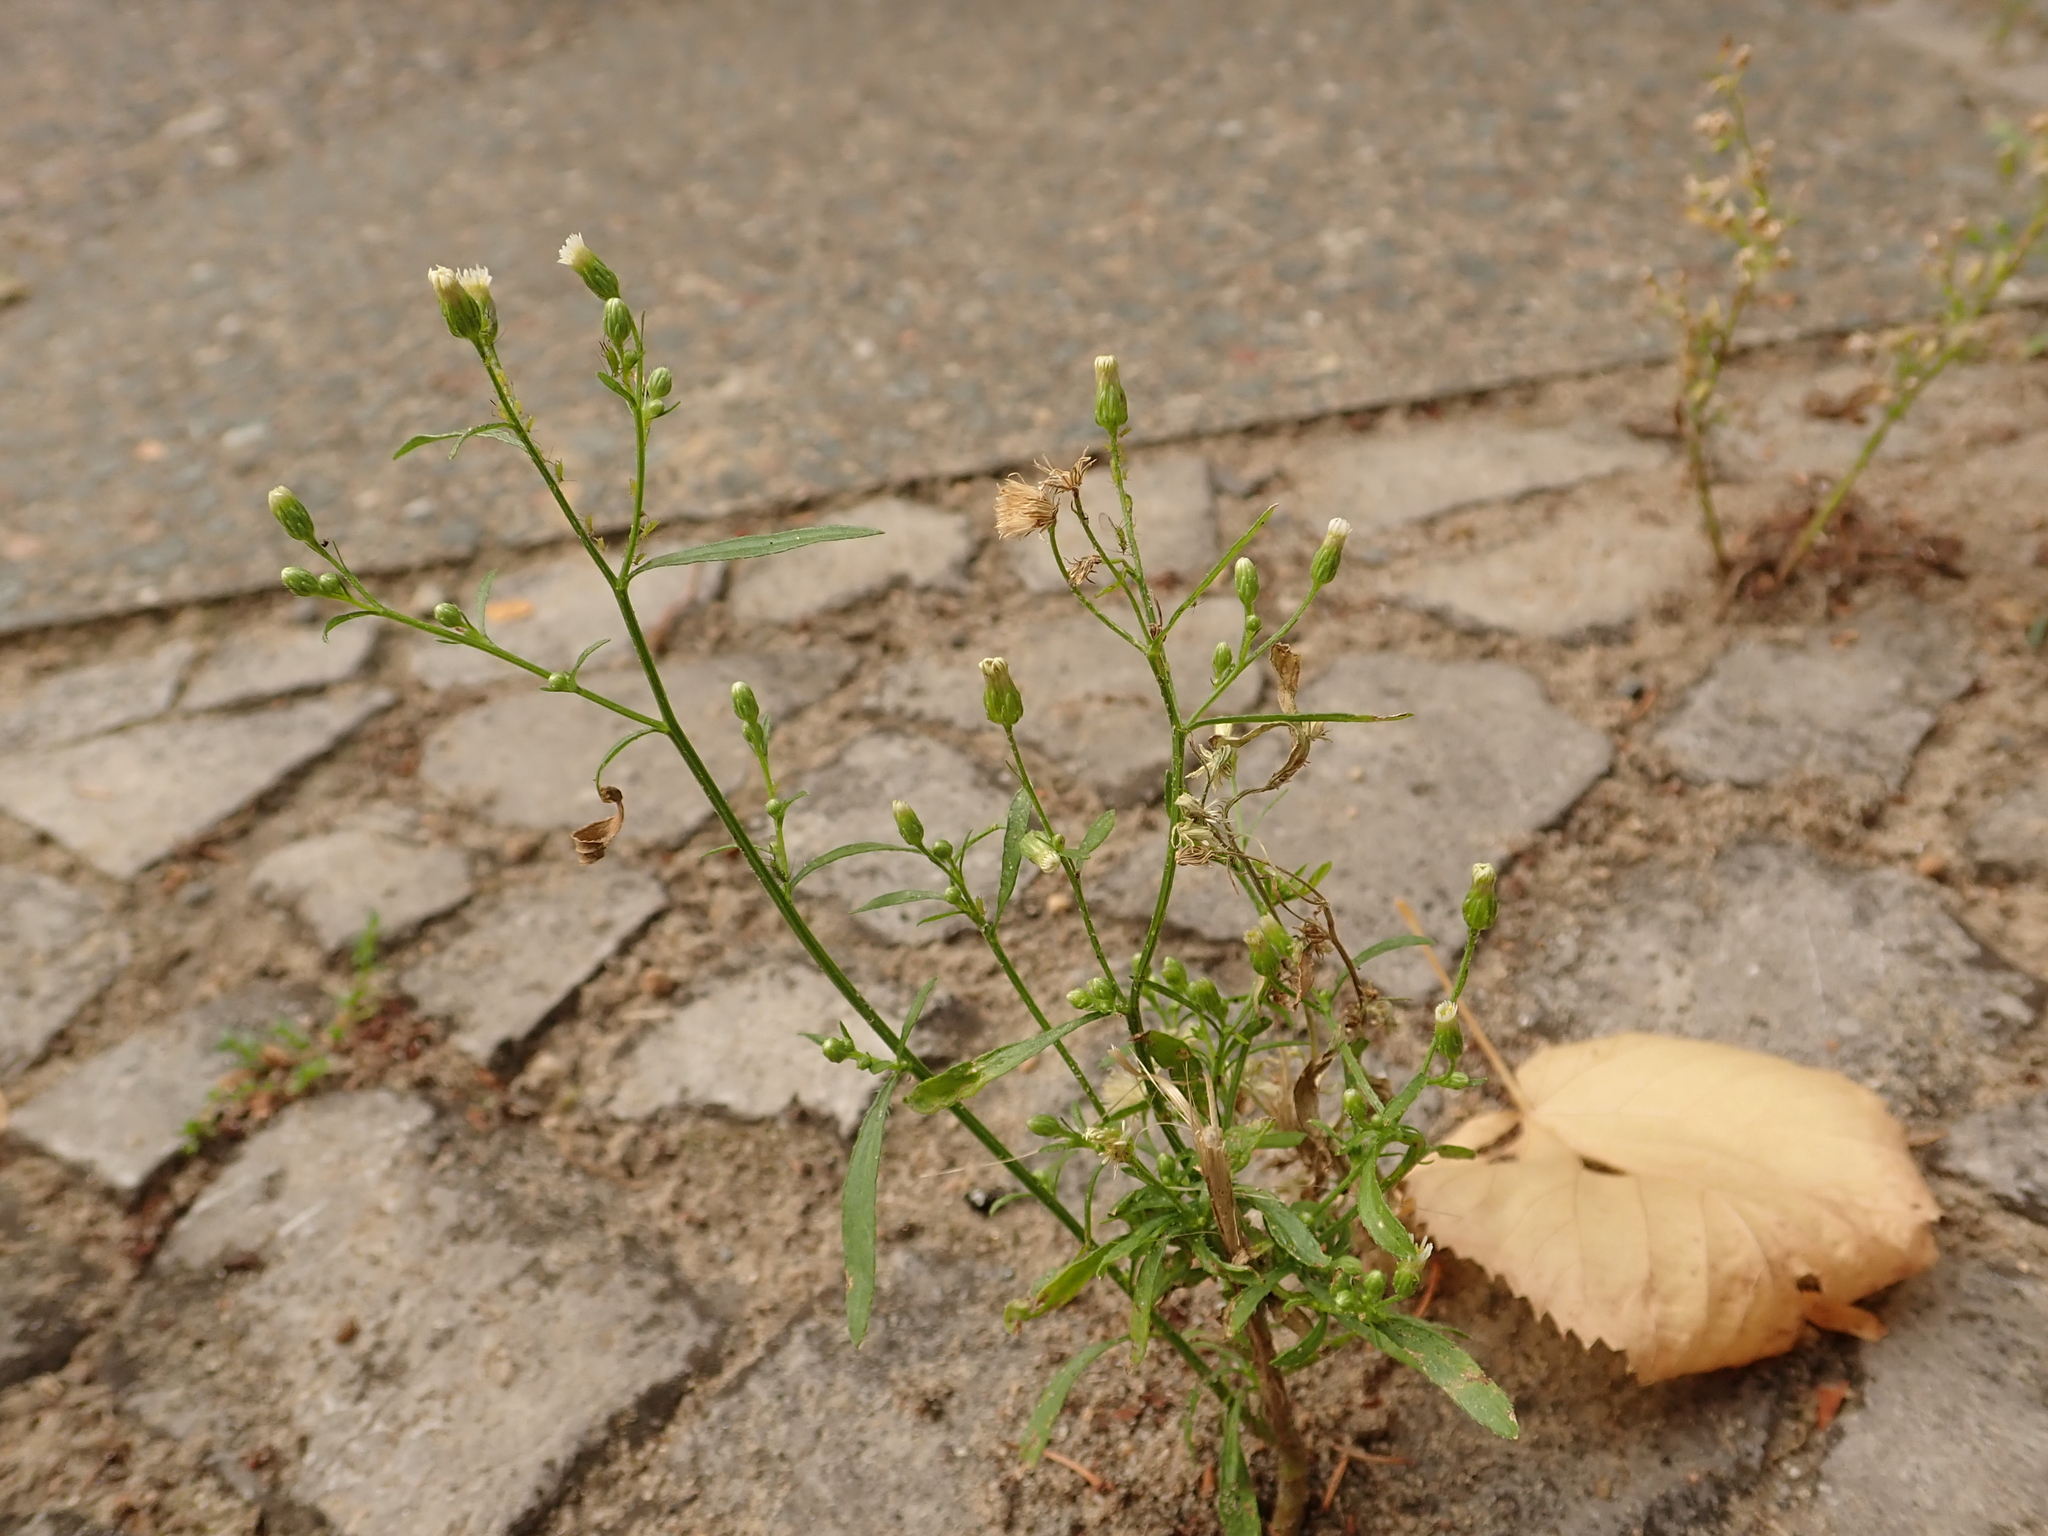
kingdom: Plantae
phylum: Tracheophyta
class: Magnoliopsida
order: Asterales
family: Asteraceae
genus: Erigeron
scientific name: Erigeron canadensis
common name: Canadian fleabane
